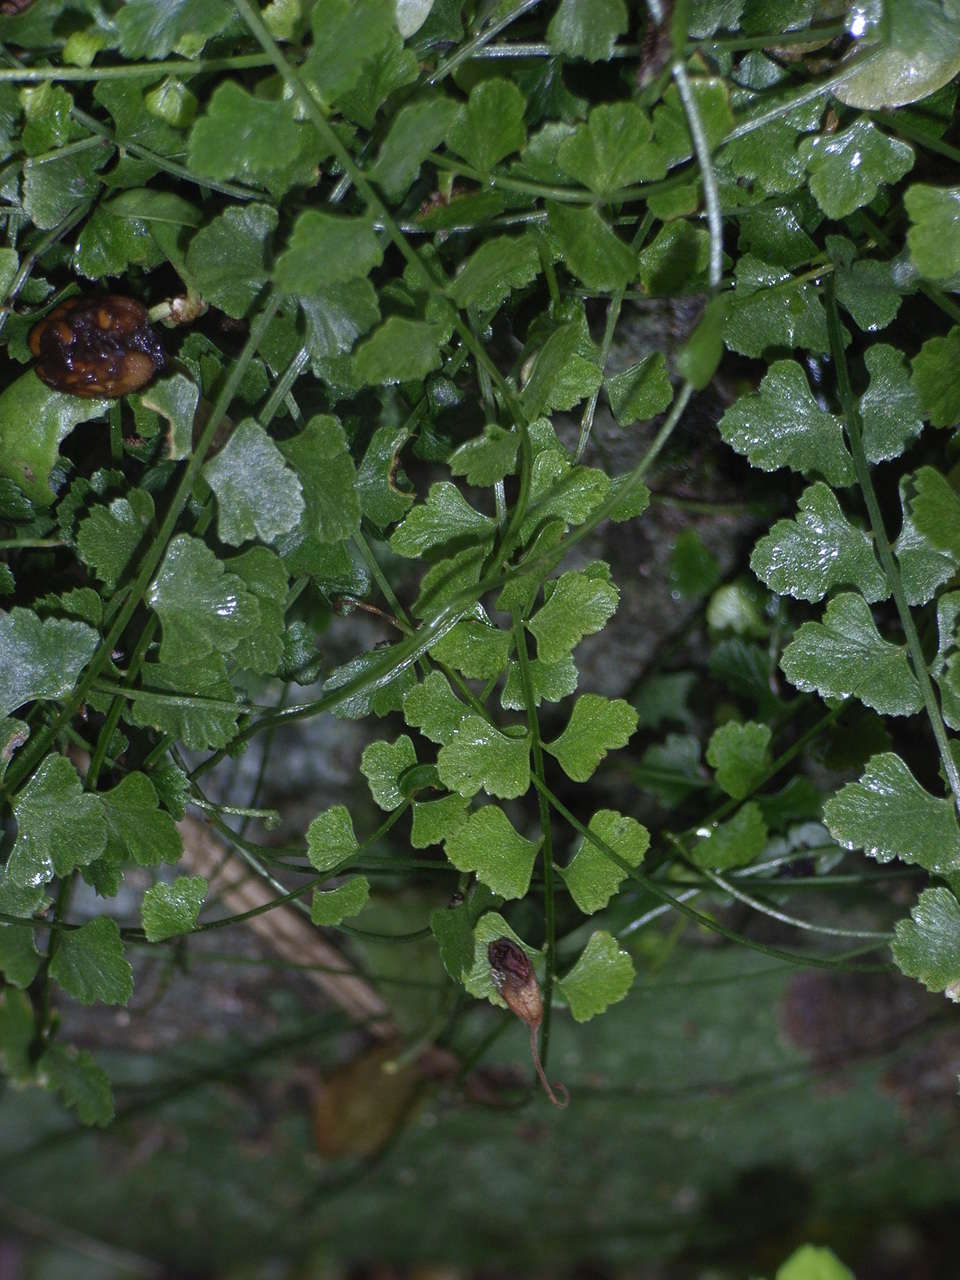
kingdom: Plantae
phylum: Tracheophyta
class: Polypodiopsida
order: Polypodiales
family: Aspleniaceae
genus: Asplenium
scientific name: Asplenium flabellifolium
